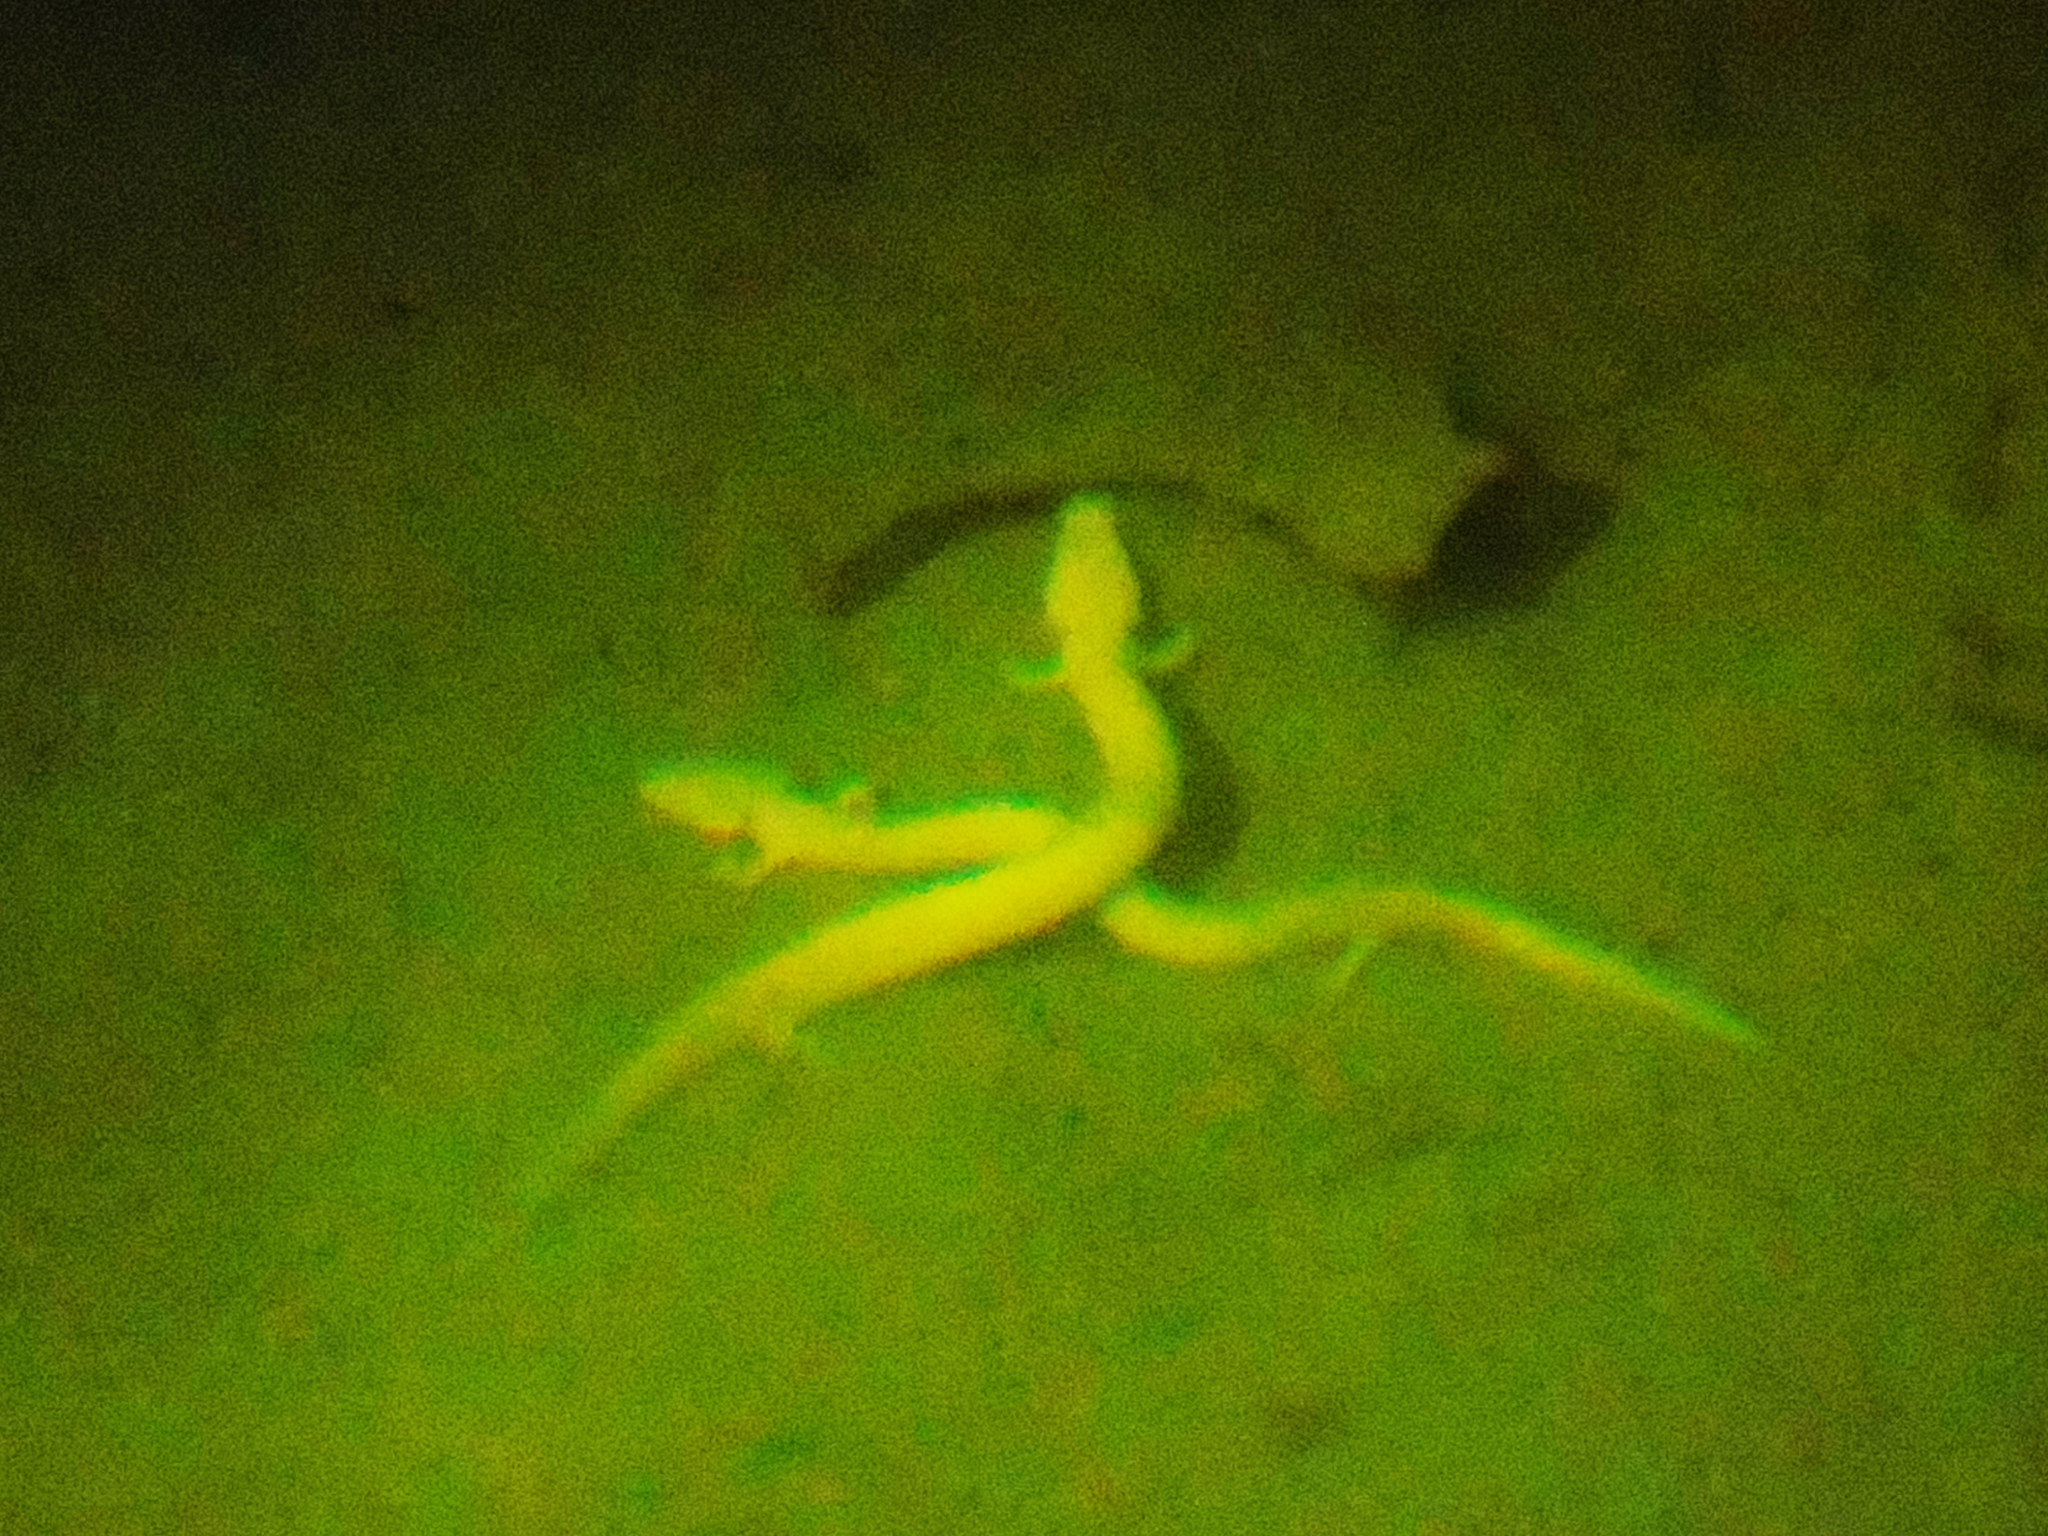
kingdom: Animalia
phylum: Chordata
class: Amphibia
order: Caudata
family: Proteidae
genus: Proteus
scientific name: Proteus anguinus
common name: Olm
